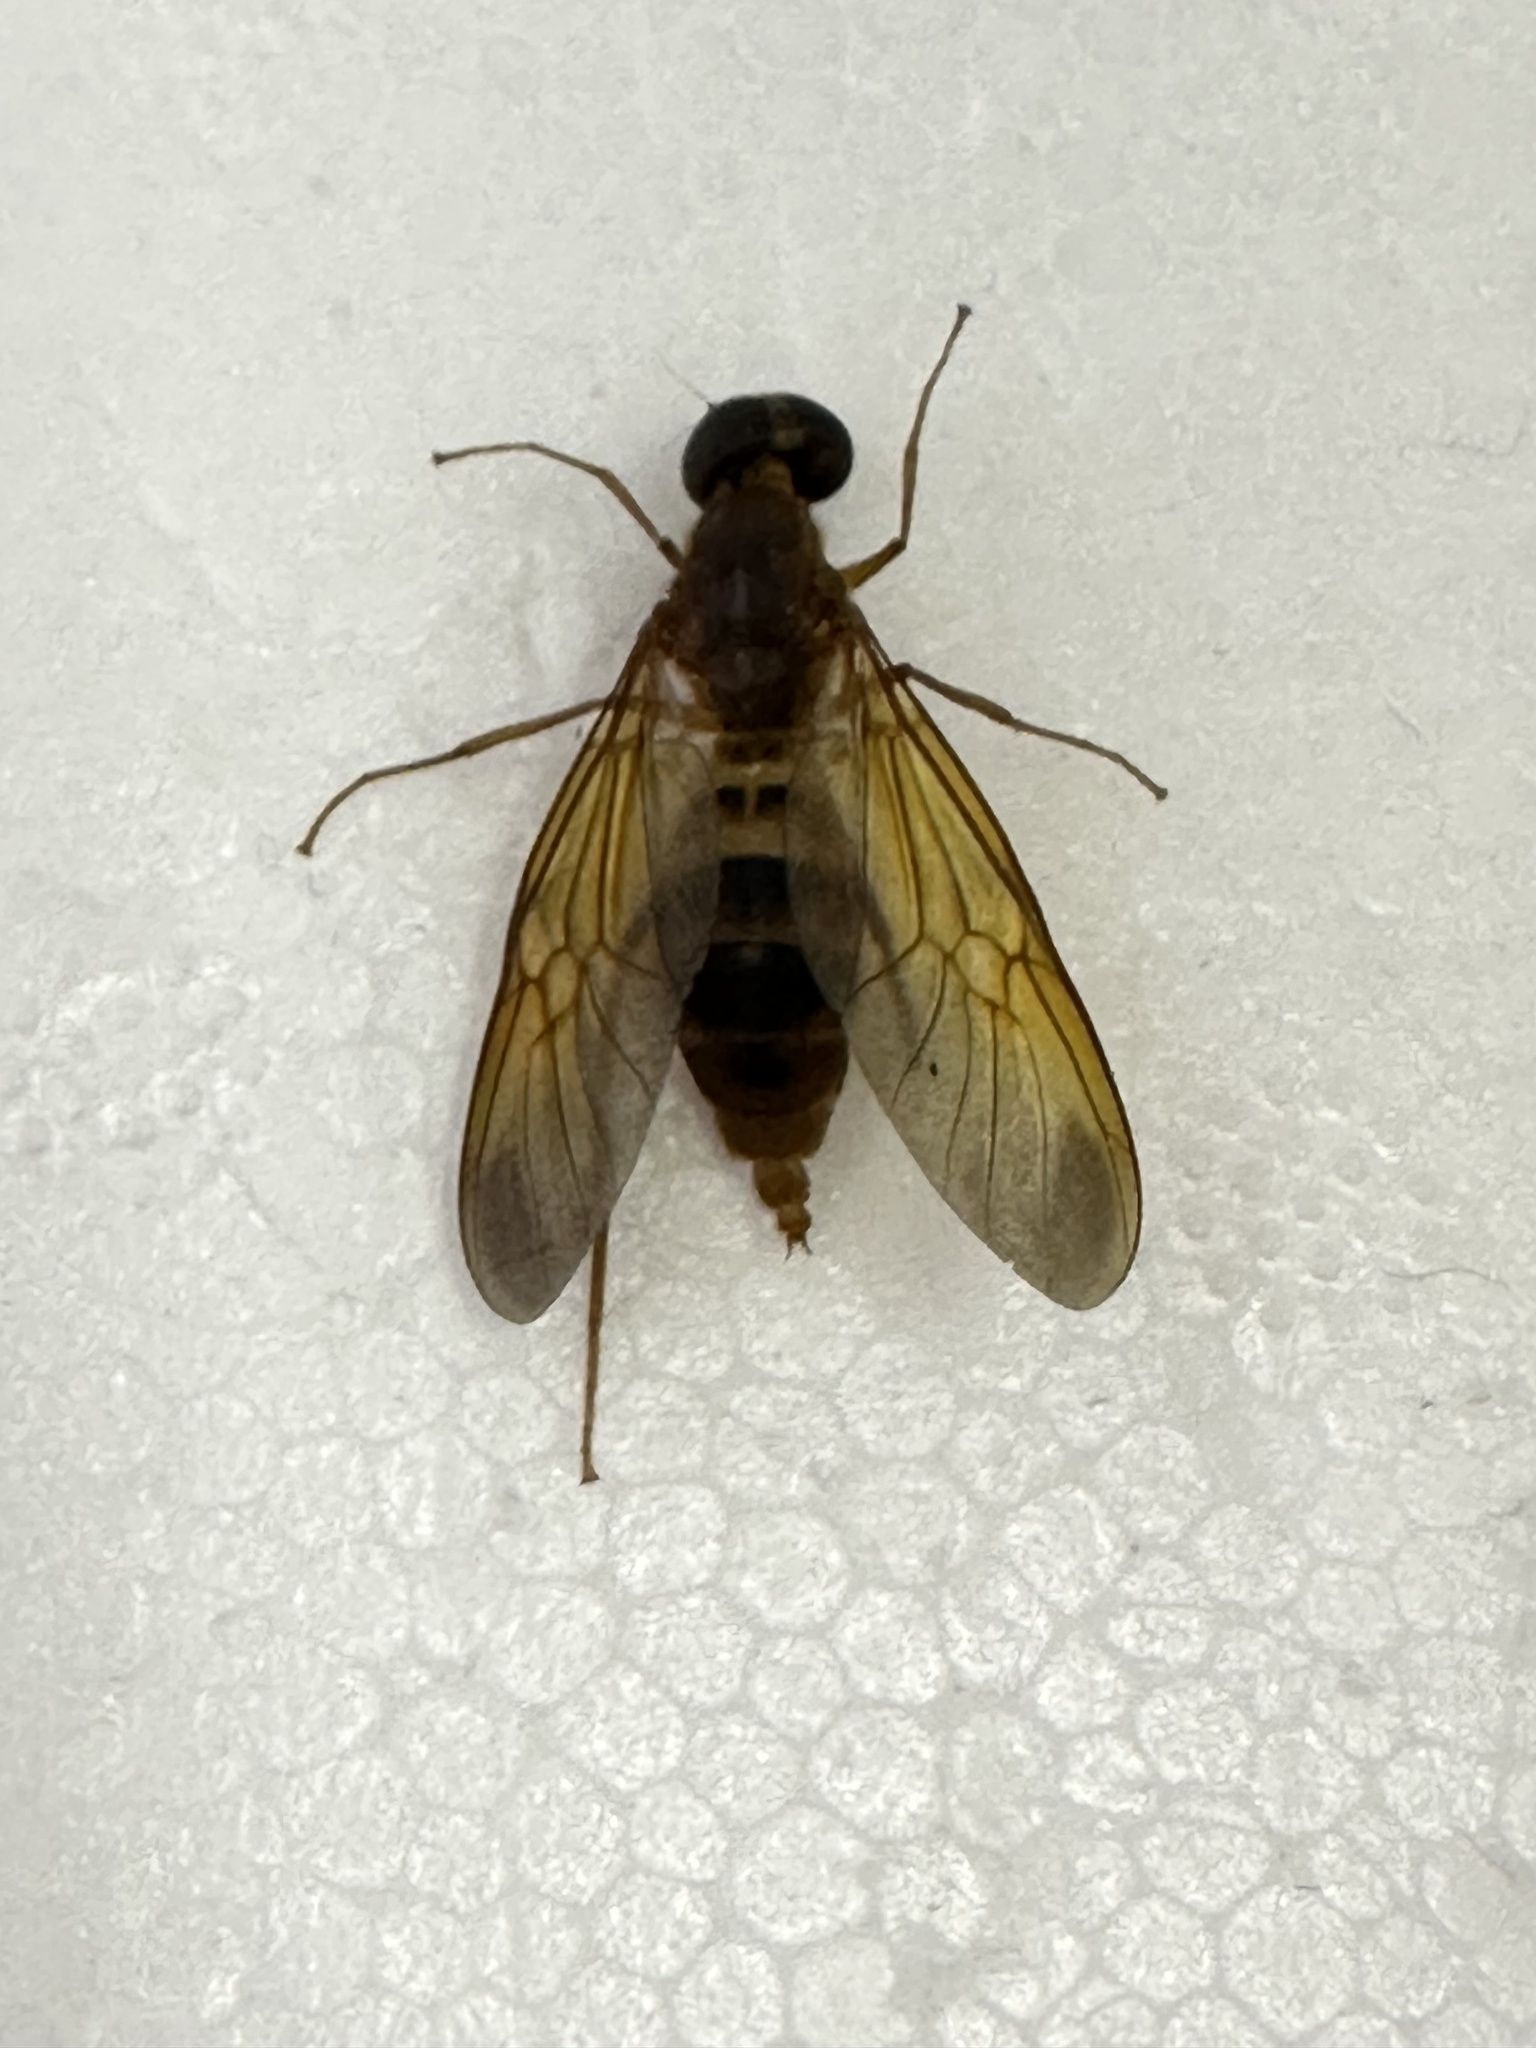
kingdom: Animalia
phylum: Arthropoda
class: Insecta
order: Diptera
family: Stratiomyidae
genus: Ptecticus
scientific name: Ptecticus aurifer
